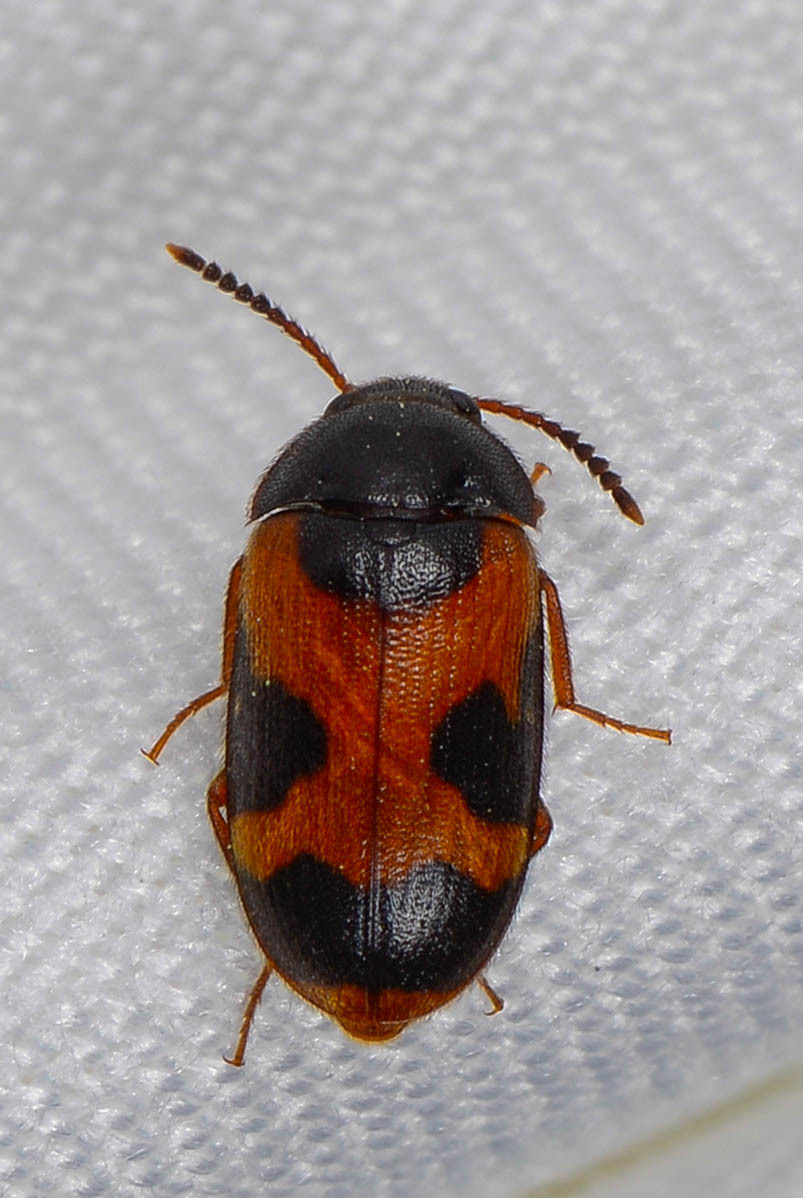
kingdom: Animalia
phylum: Arthropoda
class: Insecta
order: Coleoptera
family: Mycetophagidae
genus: Mycetophagus
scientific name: Mycetophagus punctatus
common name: Hairy fungus beetle
